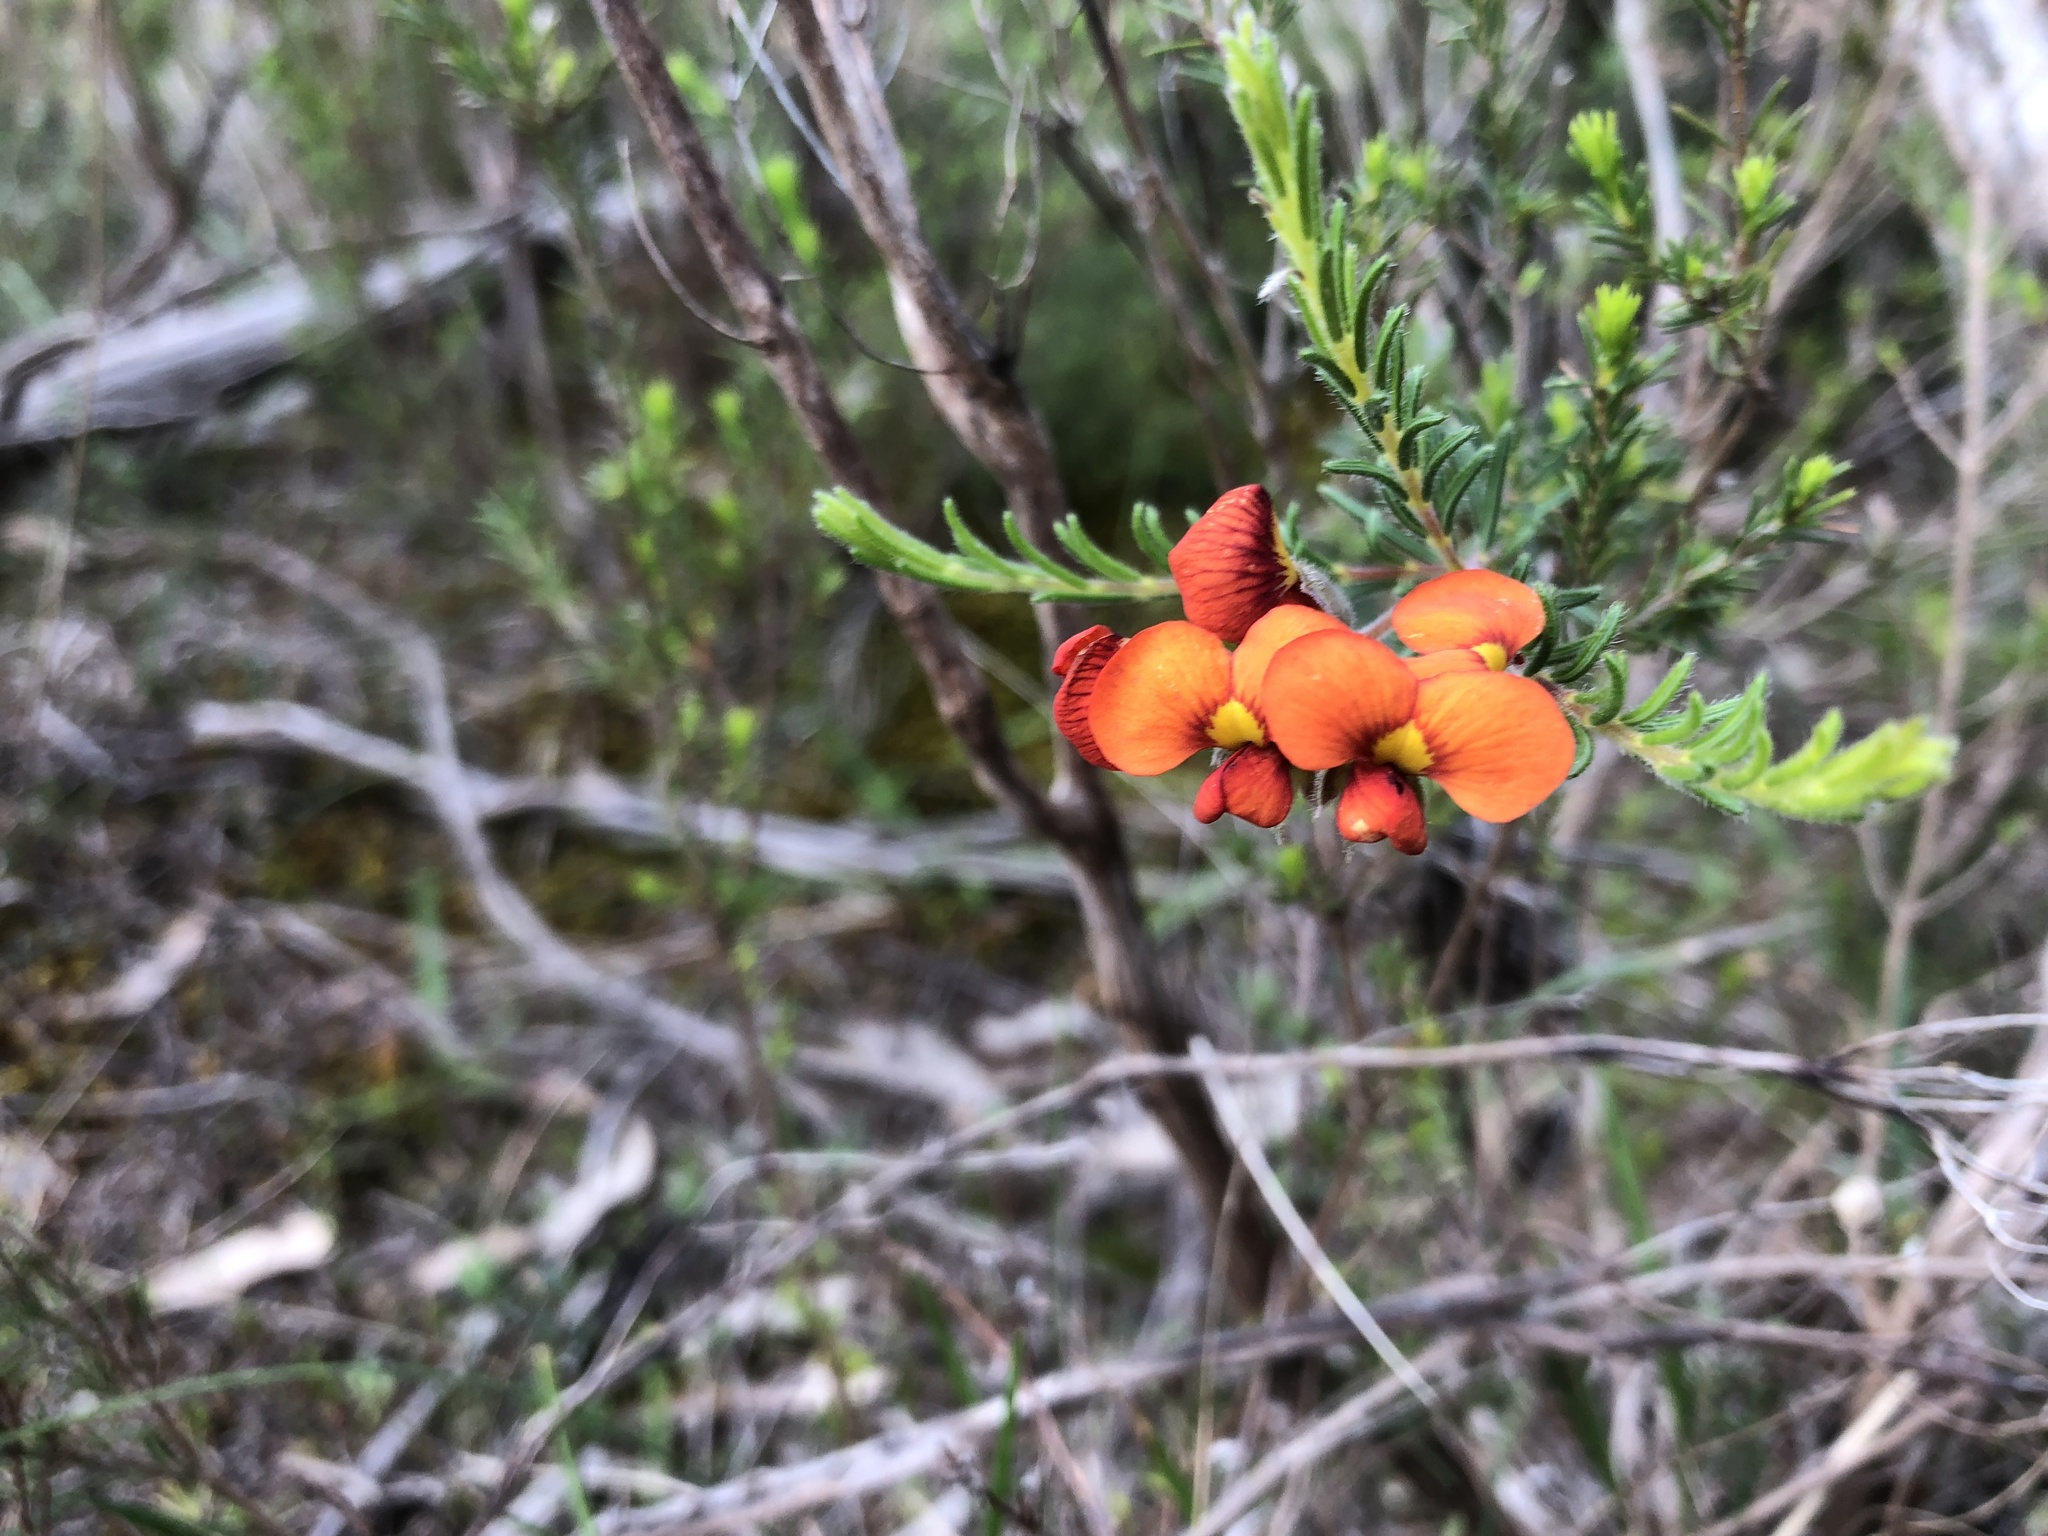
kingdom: Plantae
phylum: Tracheophyta
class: Magnoliopsida
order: Fabales
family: Fabaceae
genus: Dillwynia
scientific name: Dillwynia hispida
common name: Red parrot-pea
